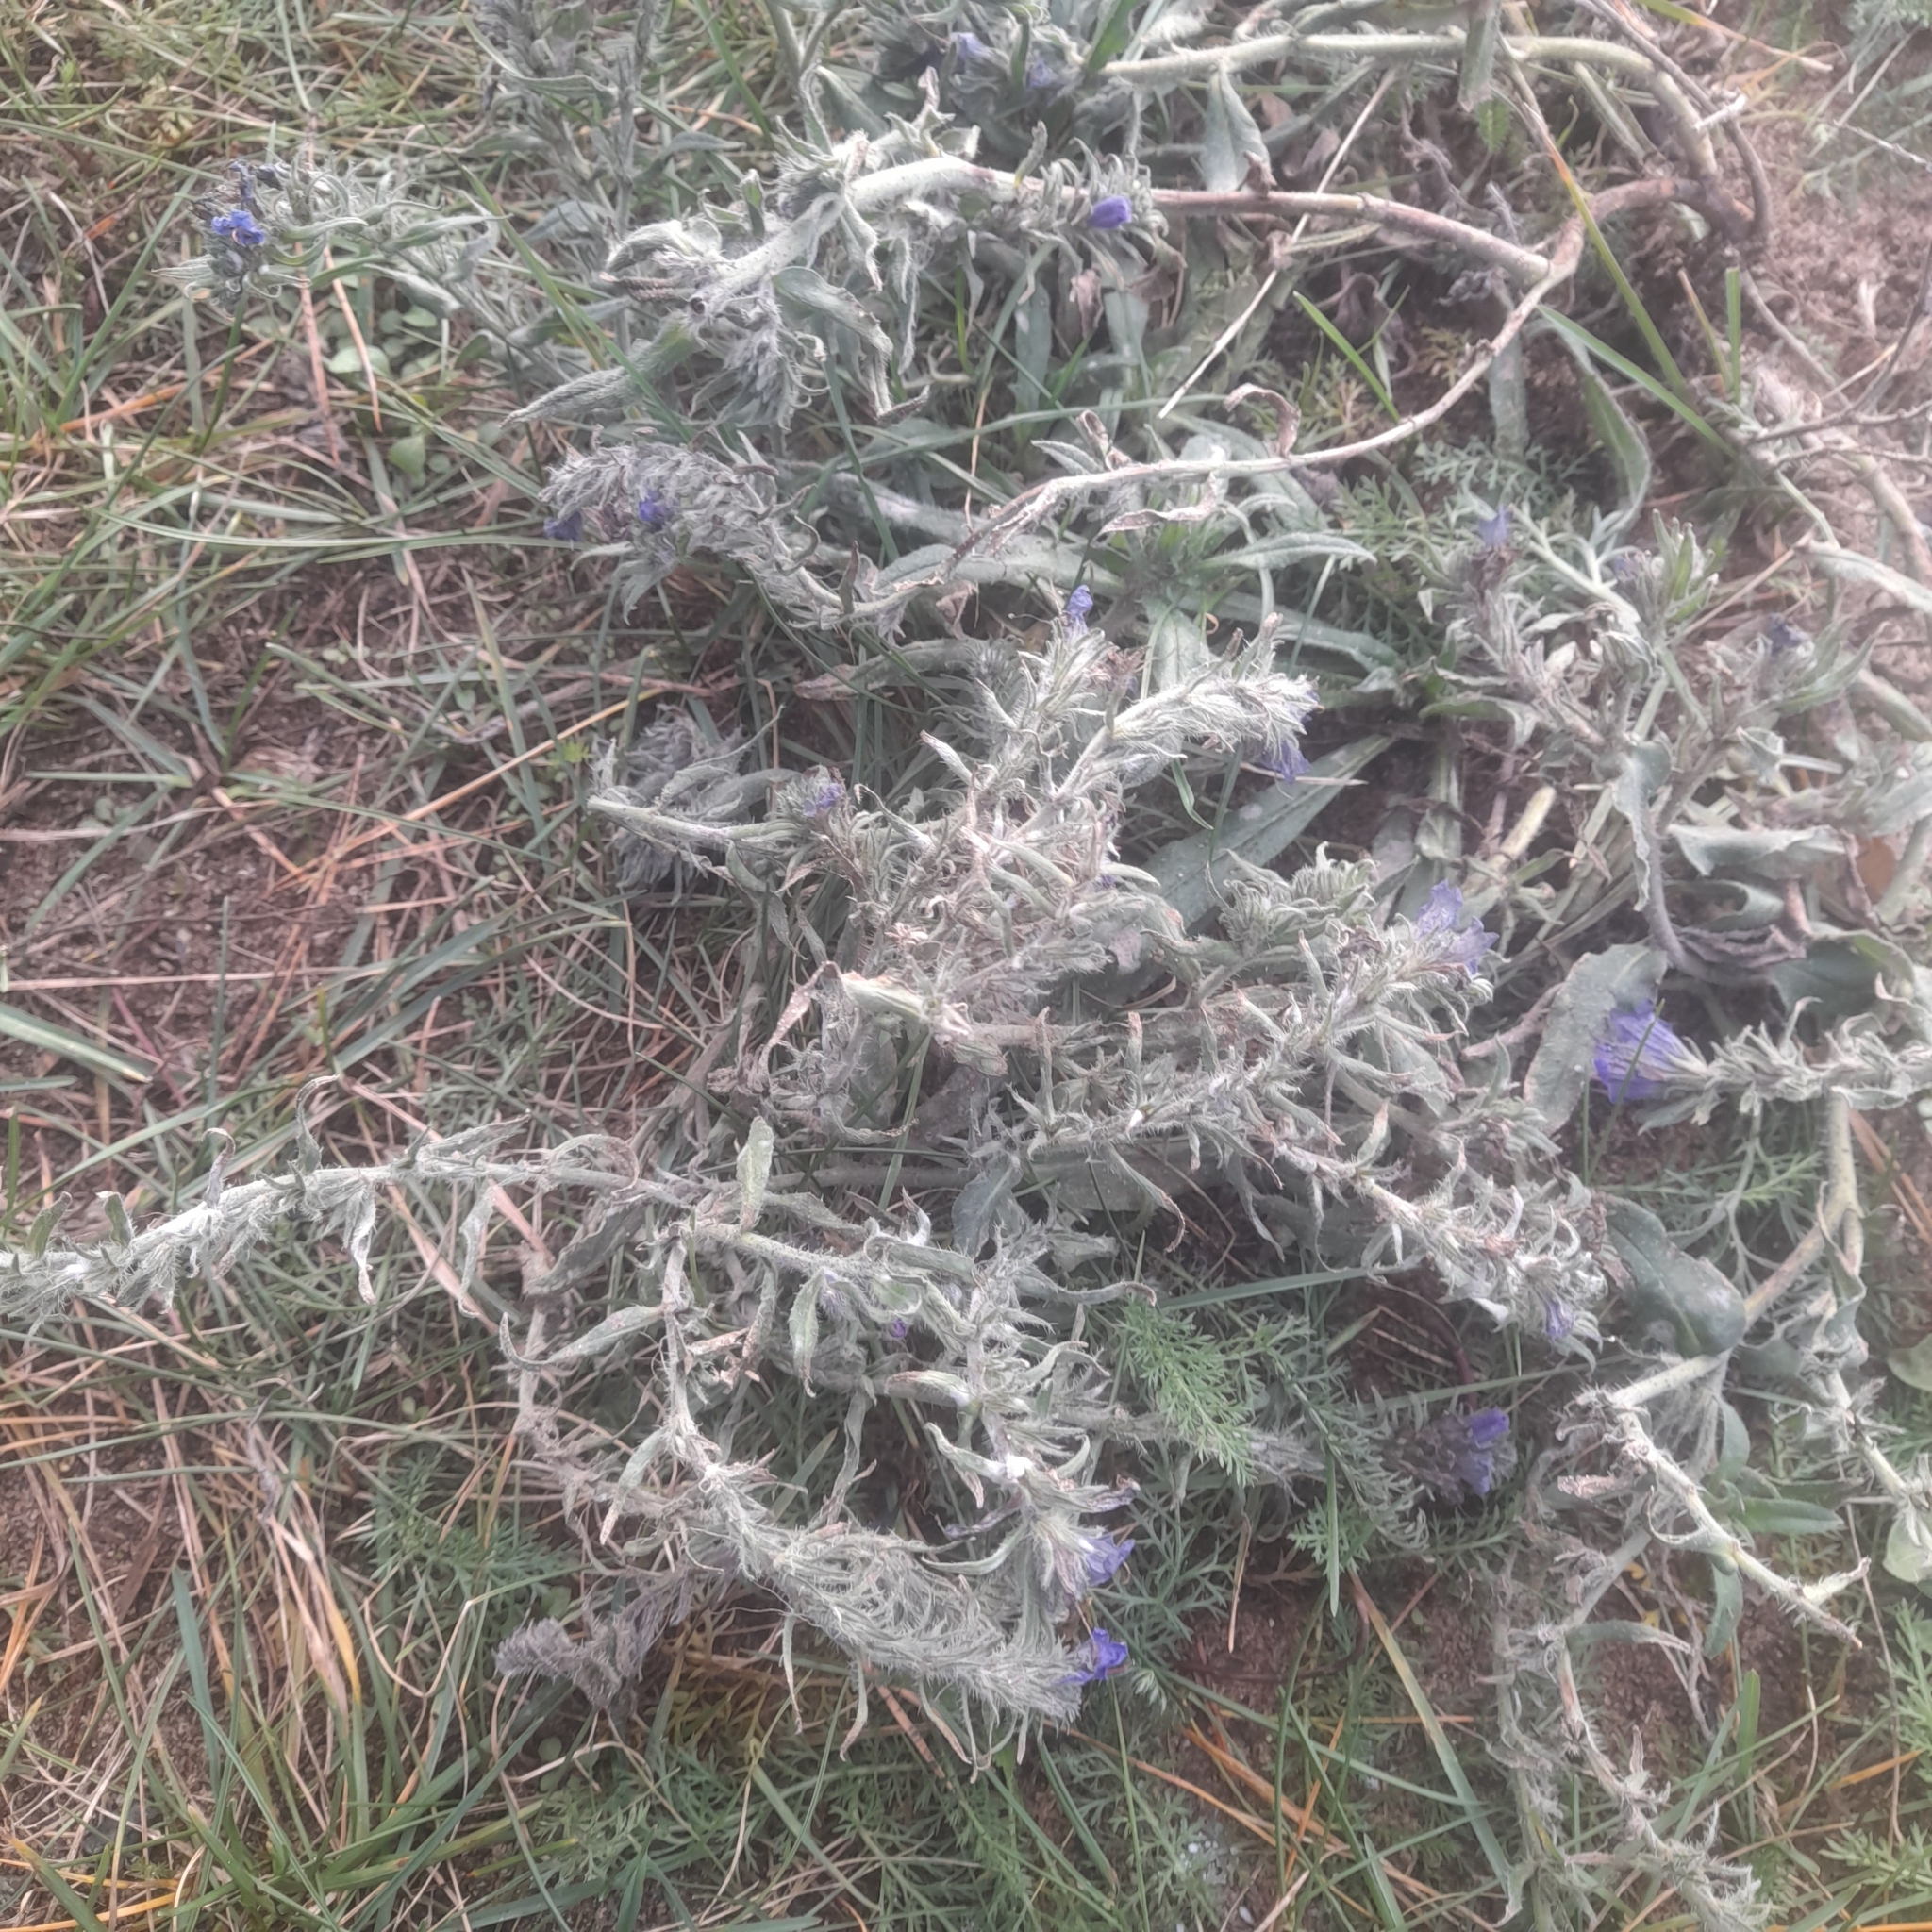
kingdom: Plantae
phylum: Tracheophyta
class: Magnoliopsida
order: Boraginales
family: Boraginaceae
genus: Echium
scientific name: Echium vulgare
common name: Common viper's bugloss
